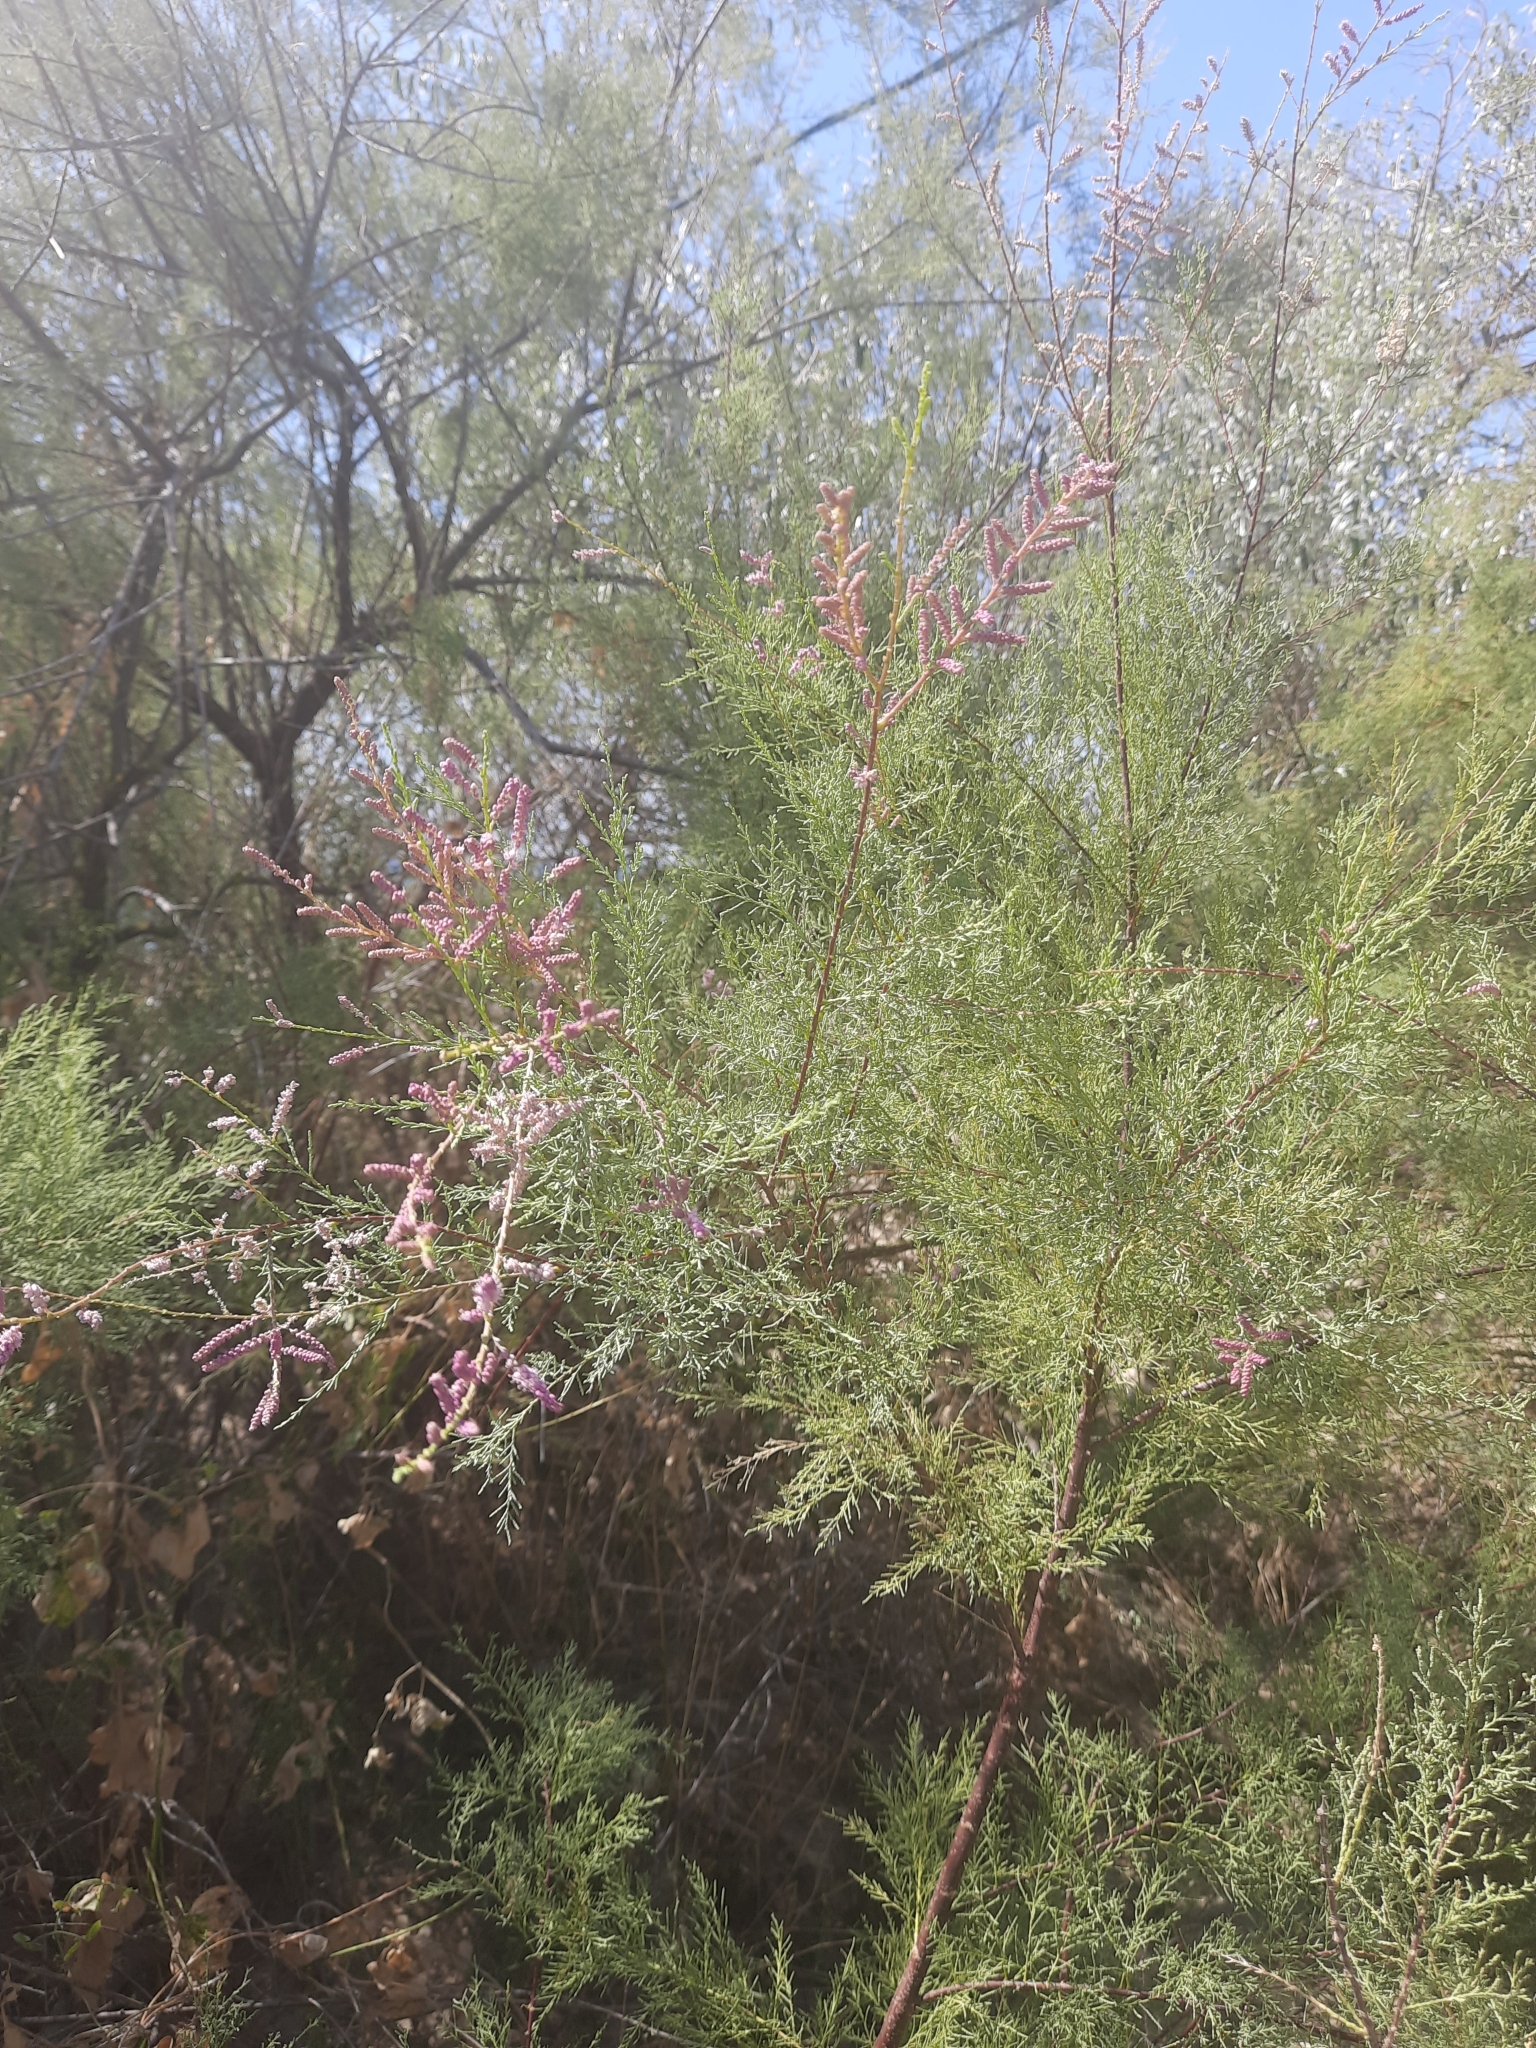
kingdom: Plantae
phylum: Tracheophyta
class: Magnoliopsida
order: Caryophyllales
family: Tamaricaceae
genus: Tamarix
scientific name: Tamarix ramosissima
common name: Pink tamarisk
